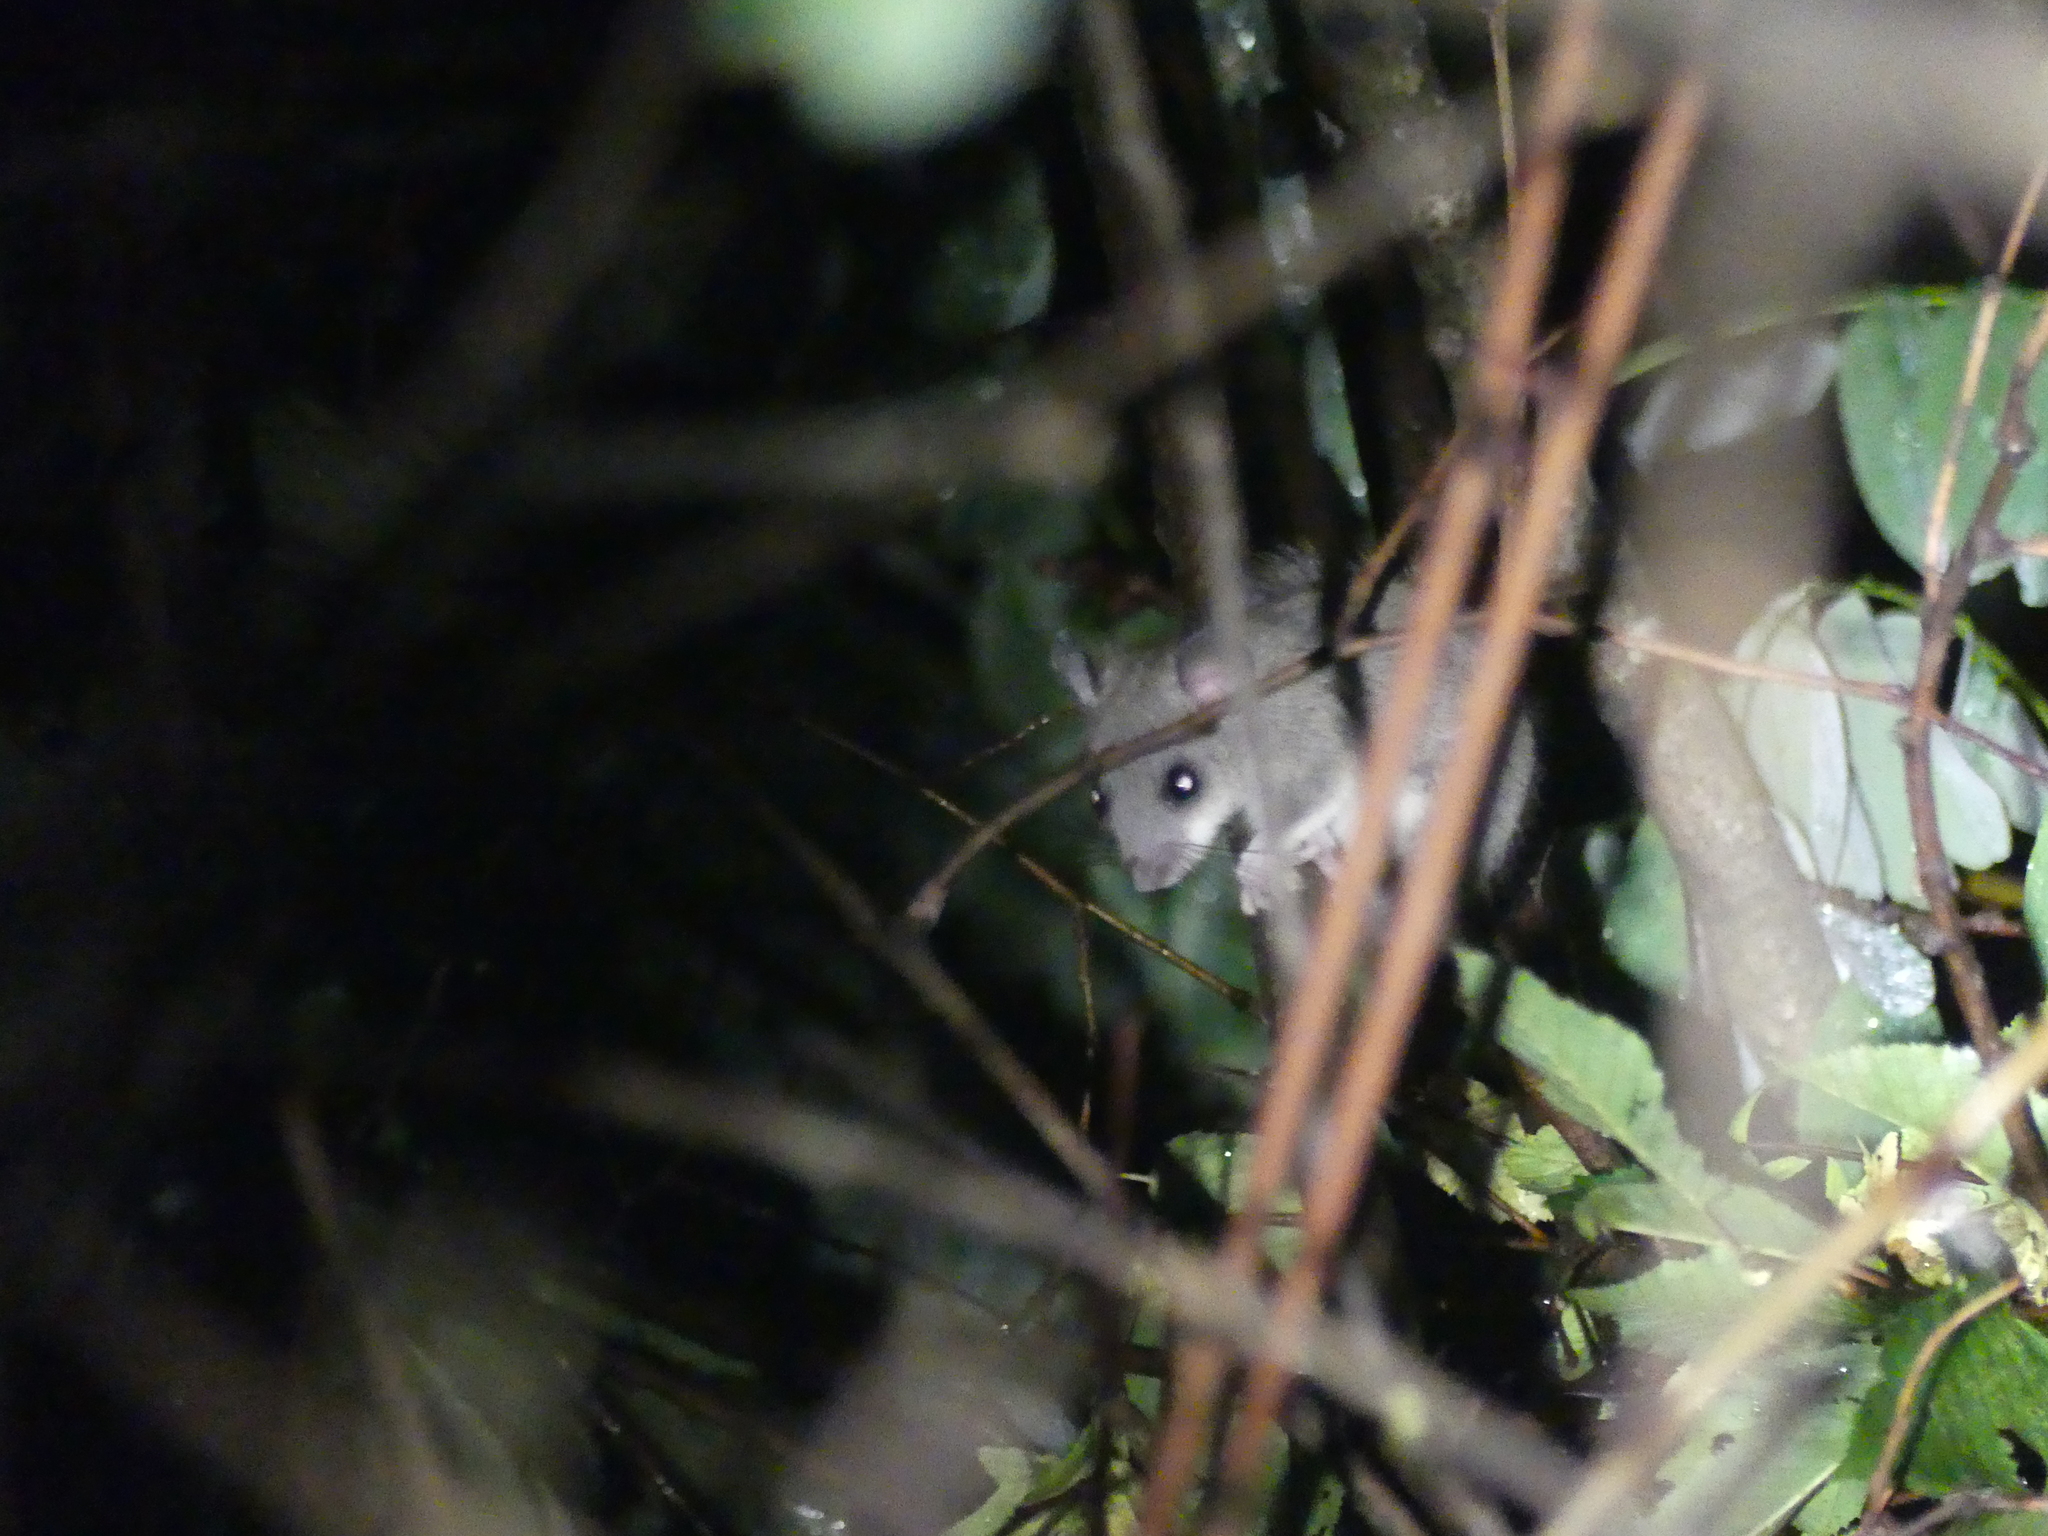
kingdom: Animalia
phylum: Chordata
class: Mammalia
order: Rodentia
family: Gliridae
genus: Glis
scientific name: Glis glis
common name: Fat dormouse
